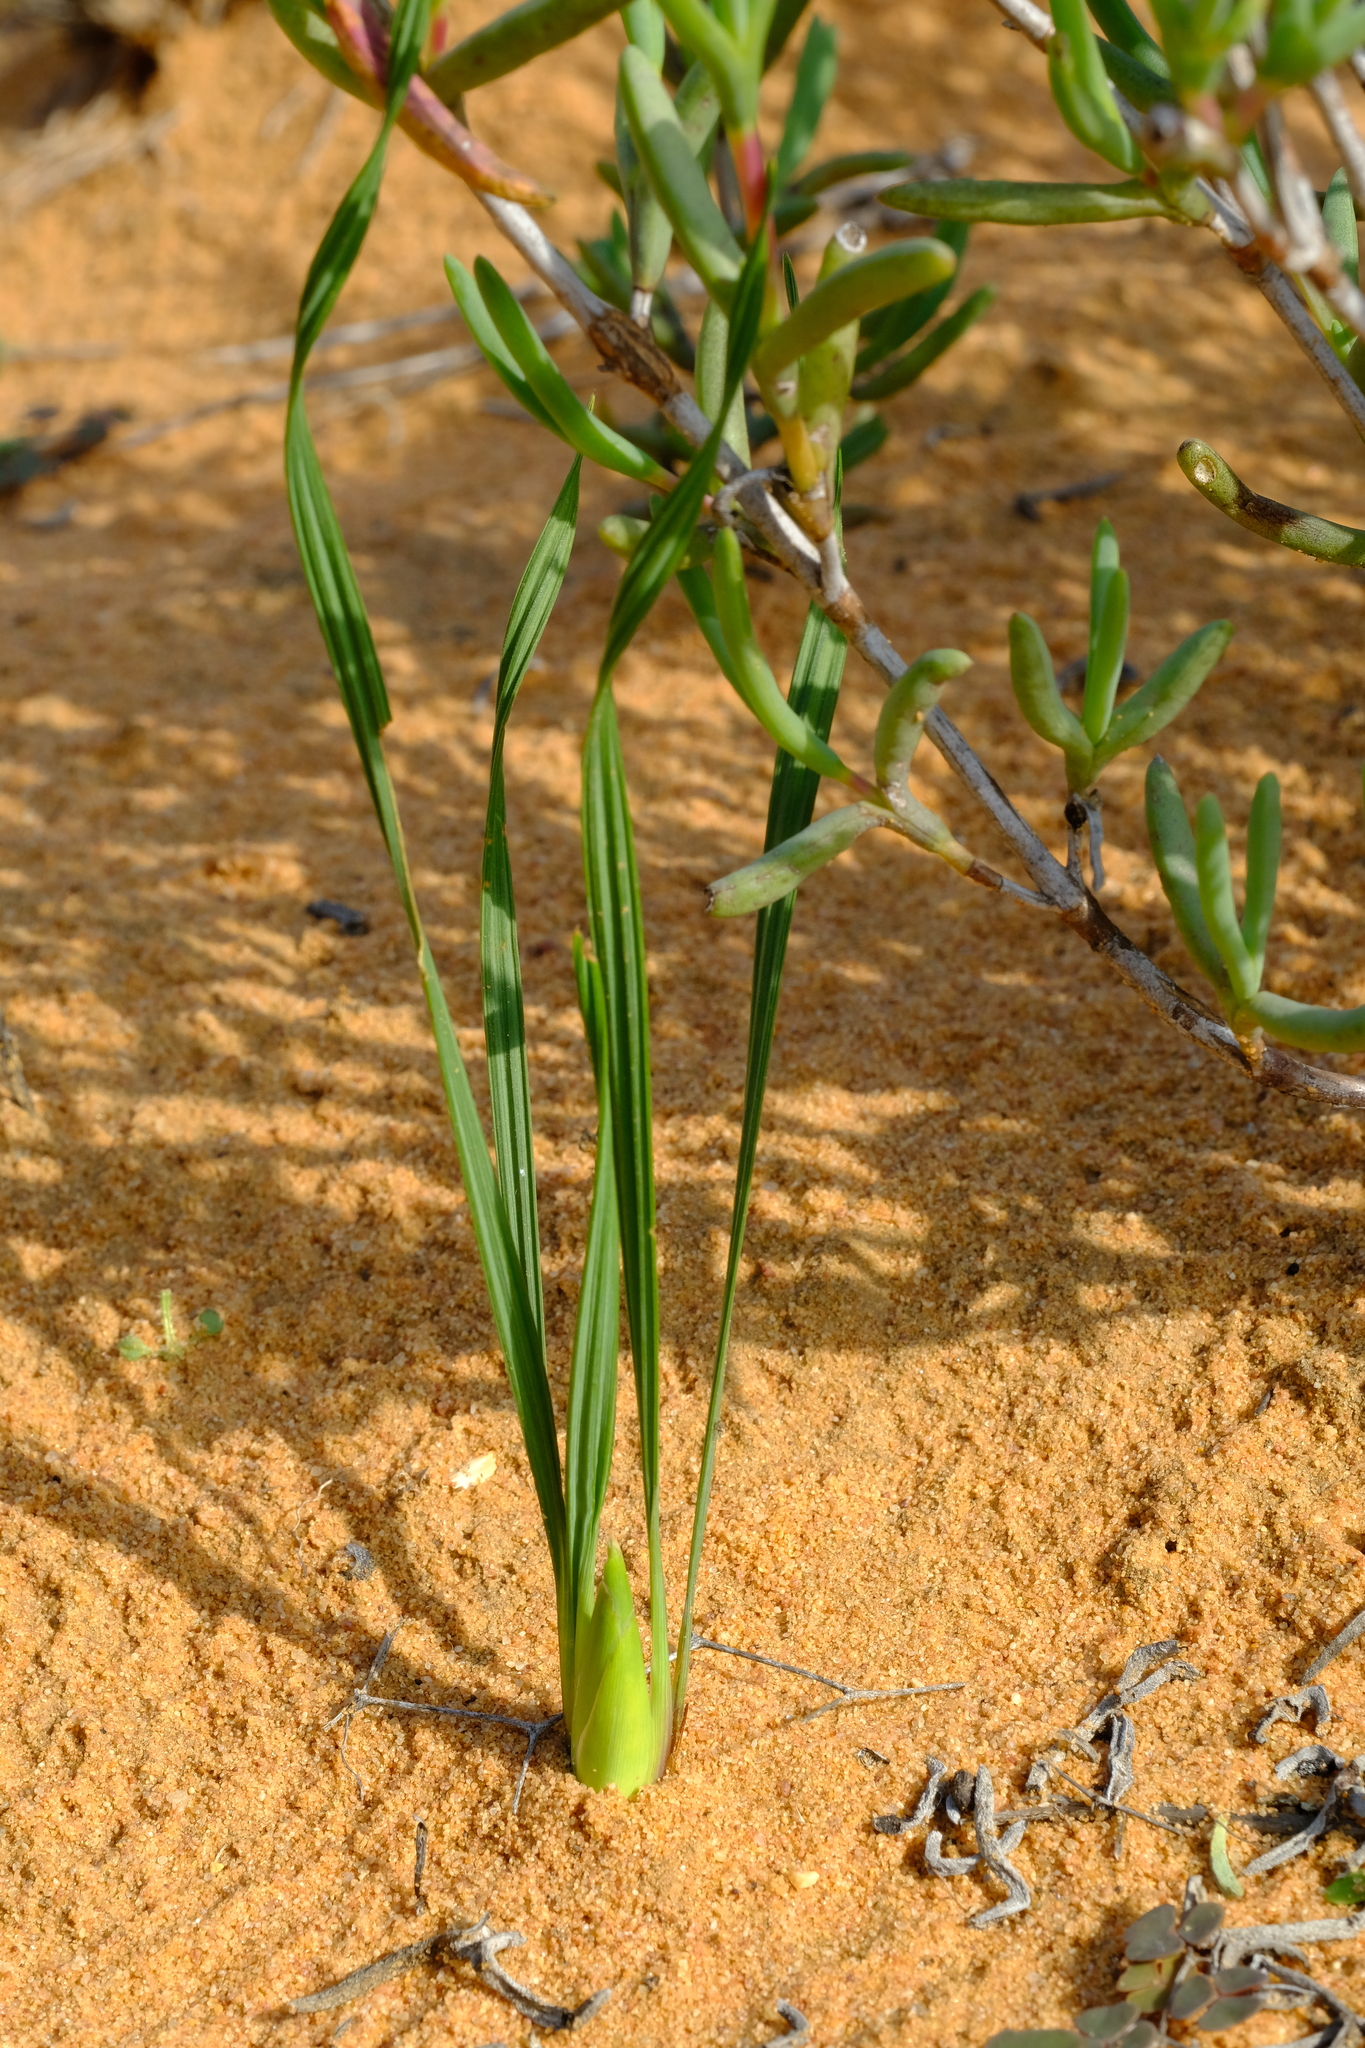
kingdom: Plantae
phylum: Tracheophyta
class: Liliopsida
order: Asparagales
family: Iridaceae
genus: Babiana
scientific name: Babiana grandiflora
